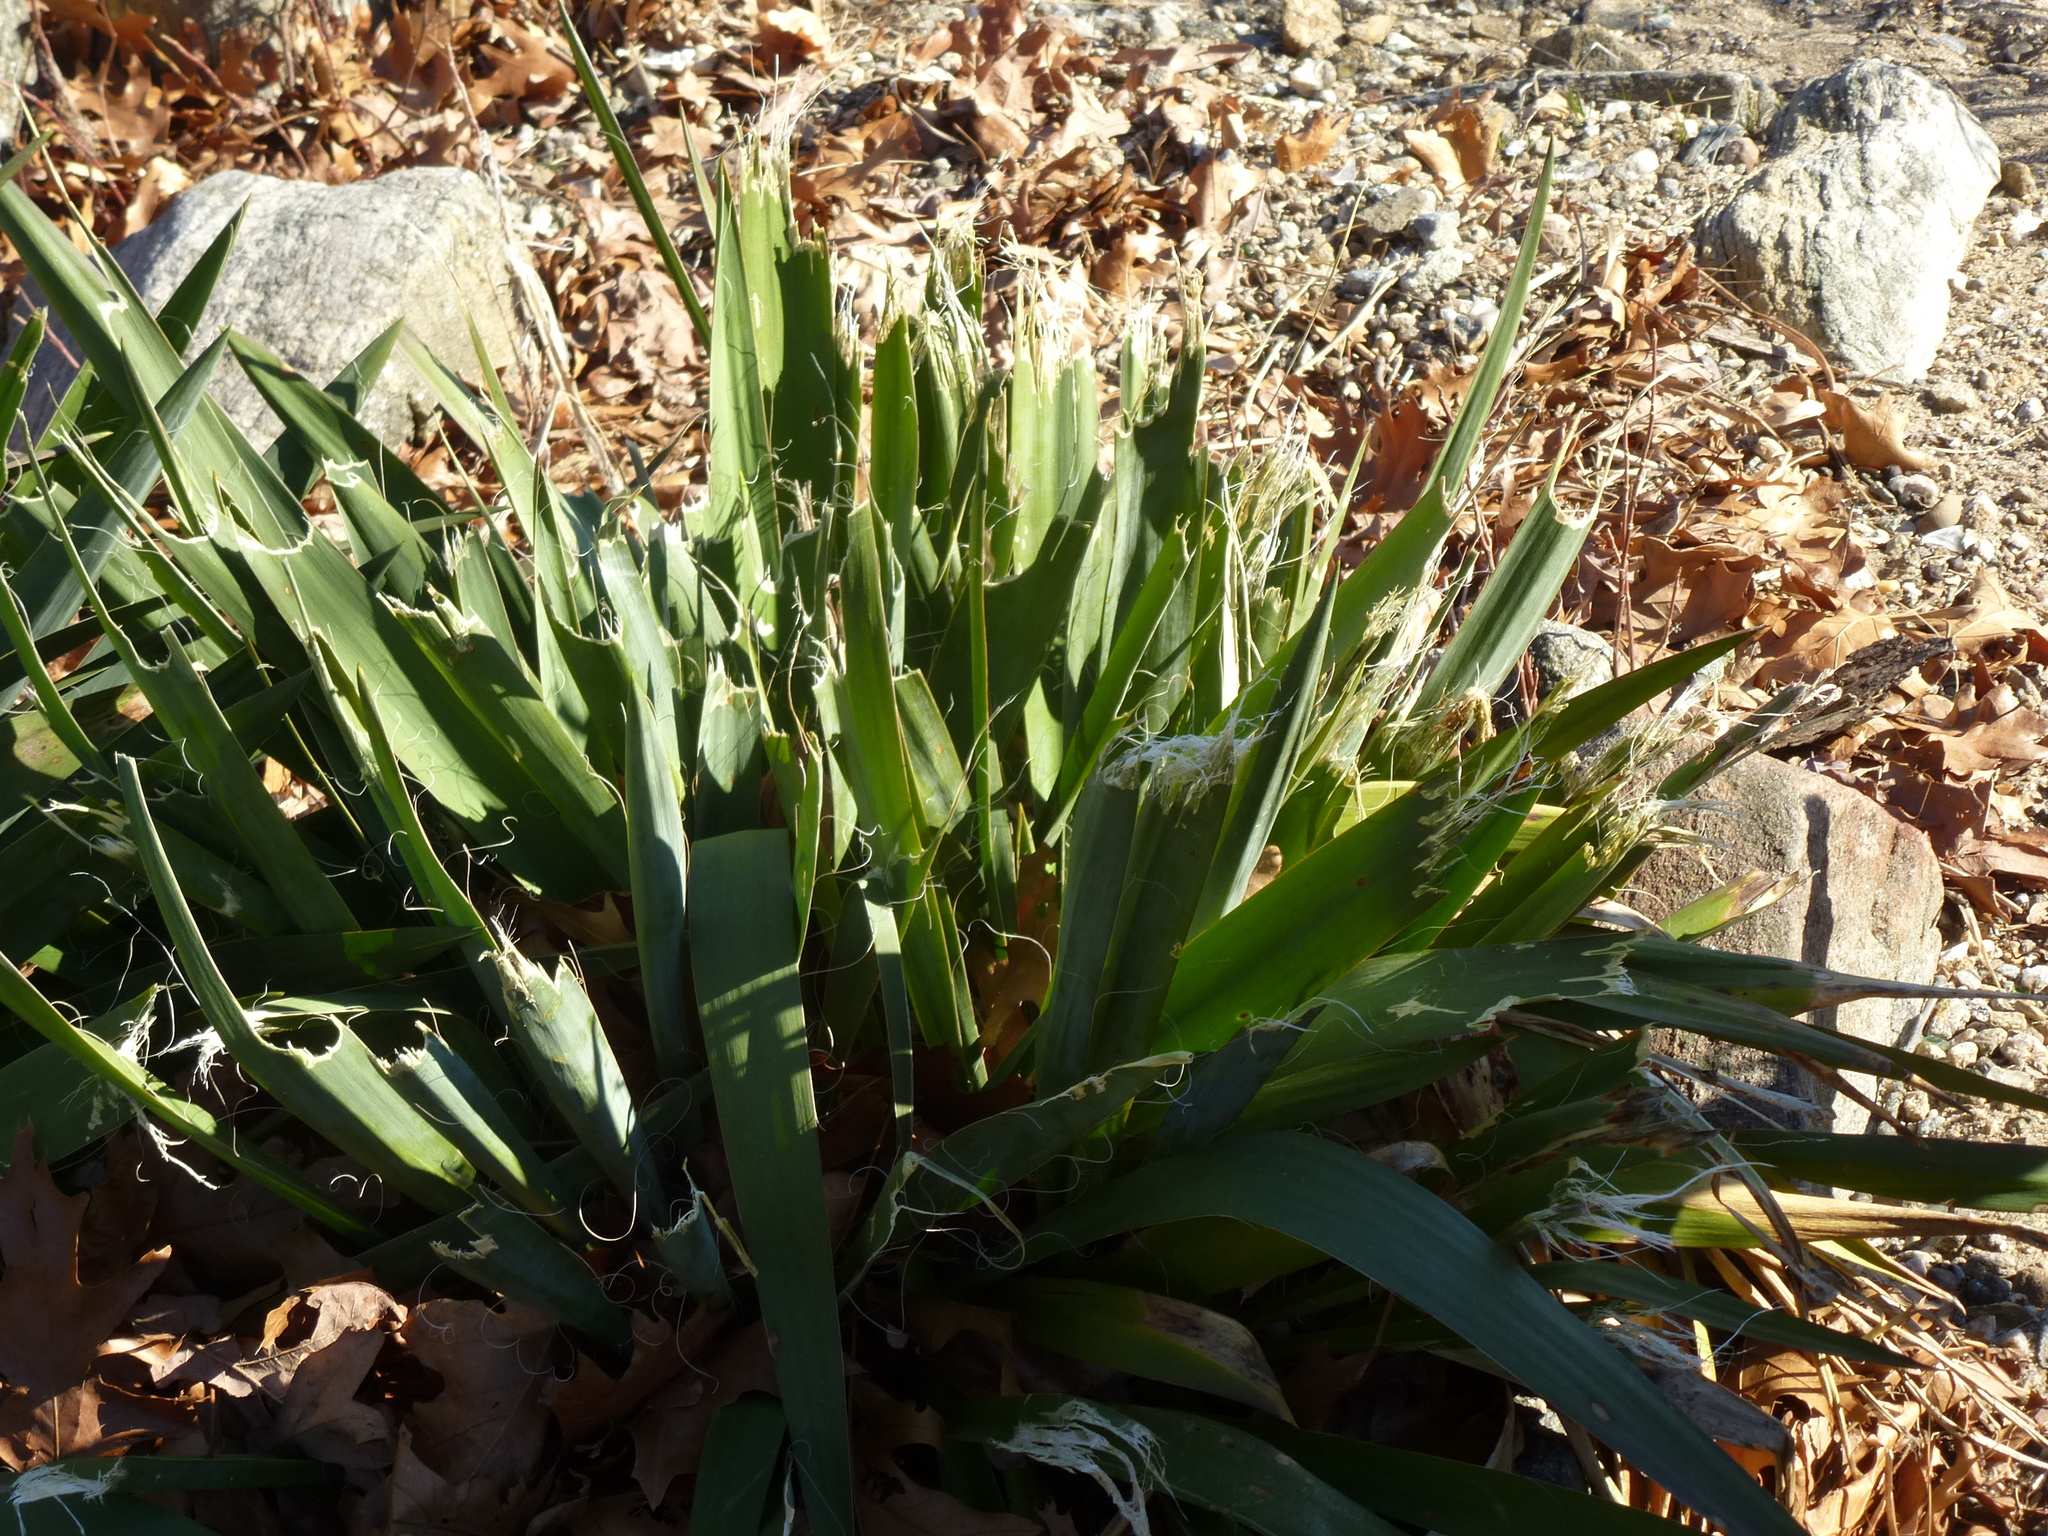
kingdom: Plantae
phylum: Tracheophyta
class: Liliopsida
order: Asparagales
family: Asparagaceae
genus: Yucca
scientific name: Yucca filamentosa
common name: Adam's-needle
